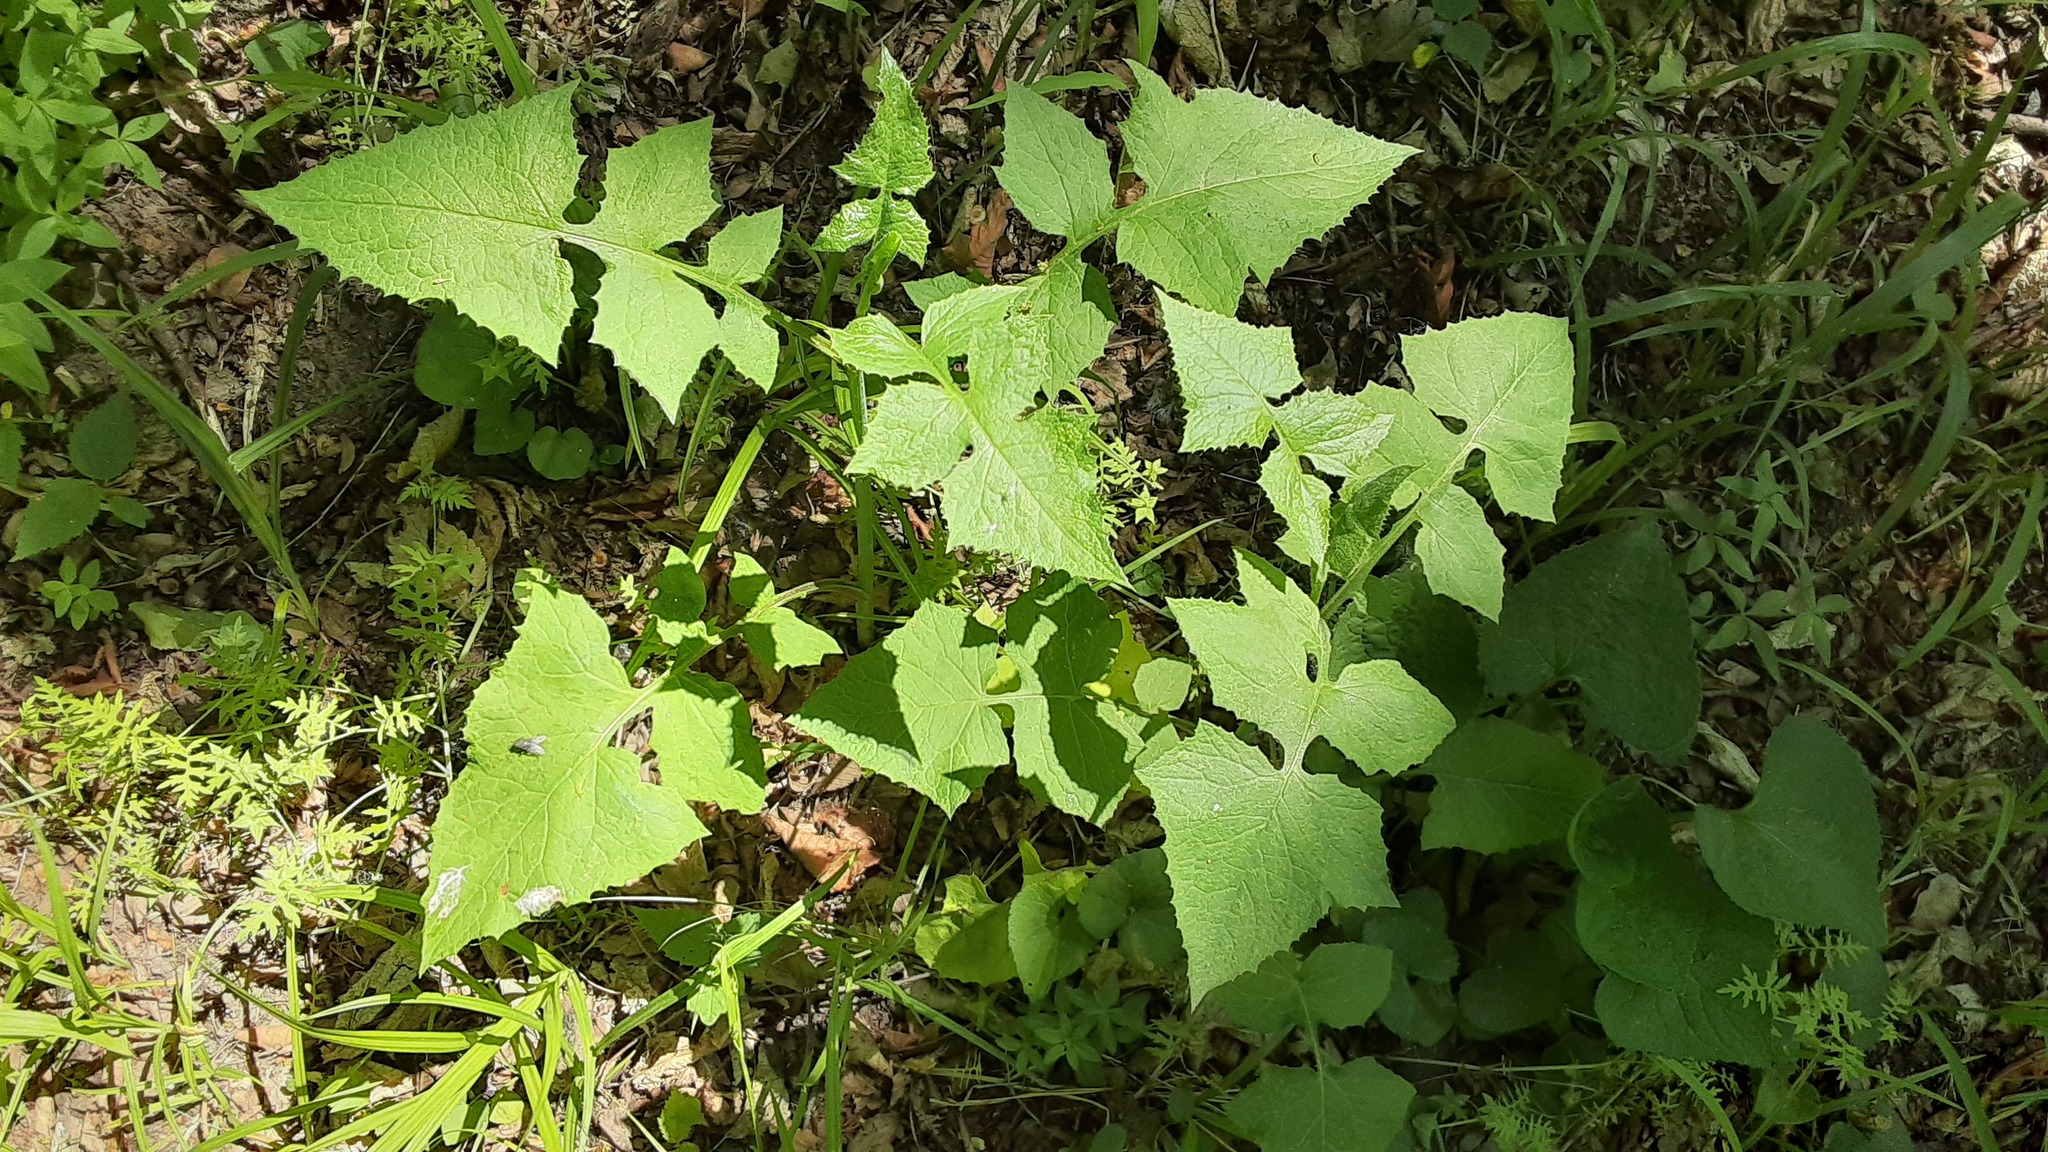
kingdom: Plantae
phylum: Tracheophyta
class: Magnoliopsida
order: Asterales
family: Asteraceae
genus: Lactuca
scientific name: Lactuca floridana
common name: Woodland lettuce
